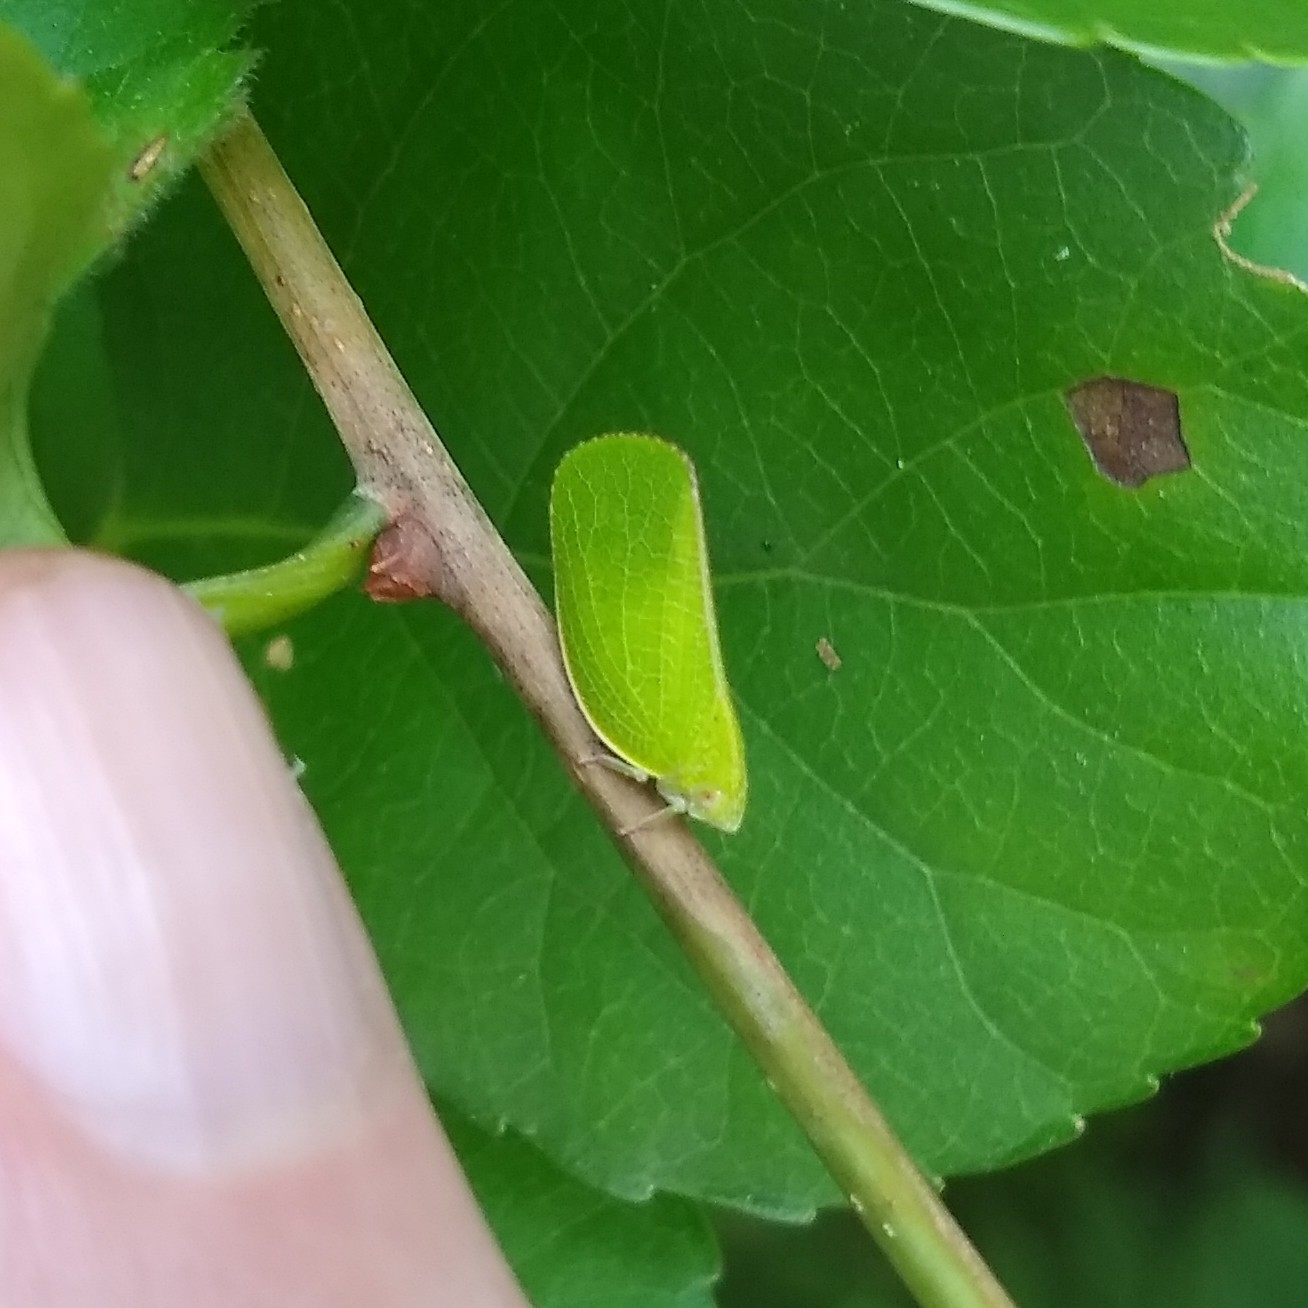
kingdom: Animalia
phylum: Arthropoda
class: Insecta
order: Hemiptera
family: Acanaloniidae
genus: Acanalonia
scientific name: Acanalonia conica
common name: Green cone-headed planthopper
